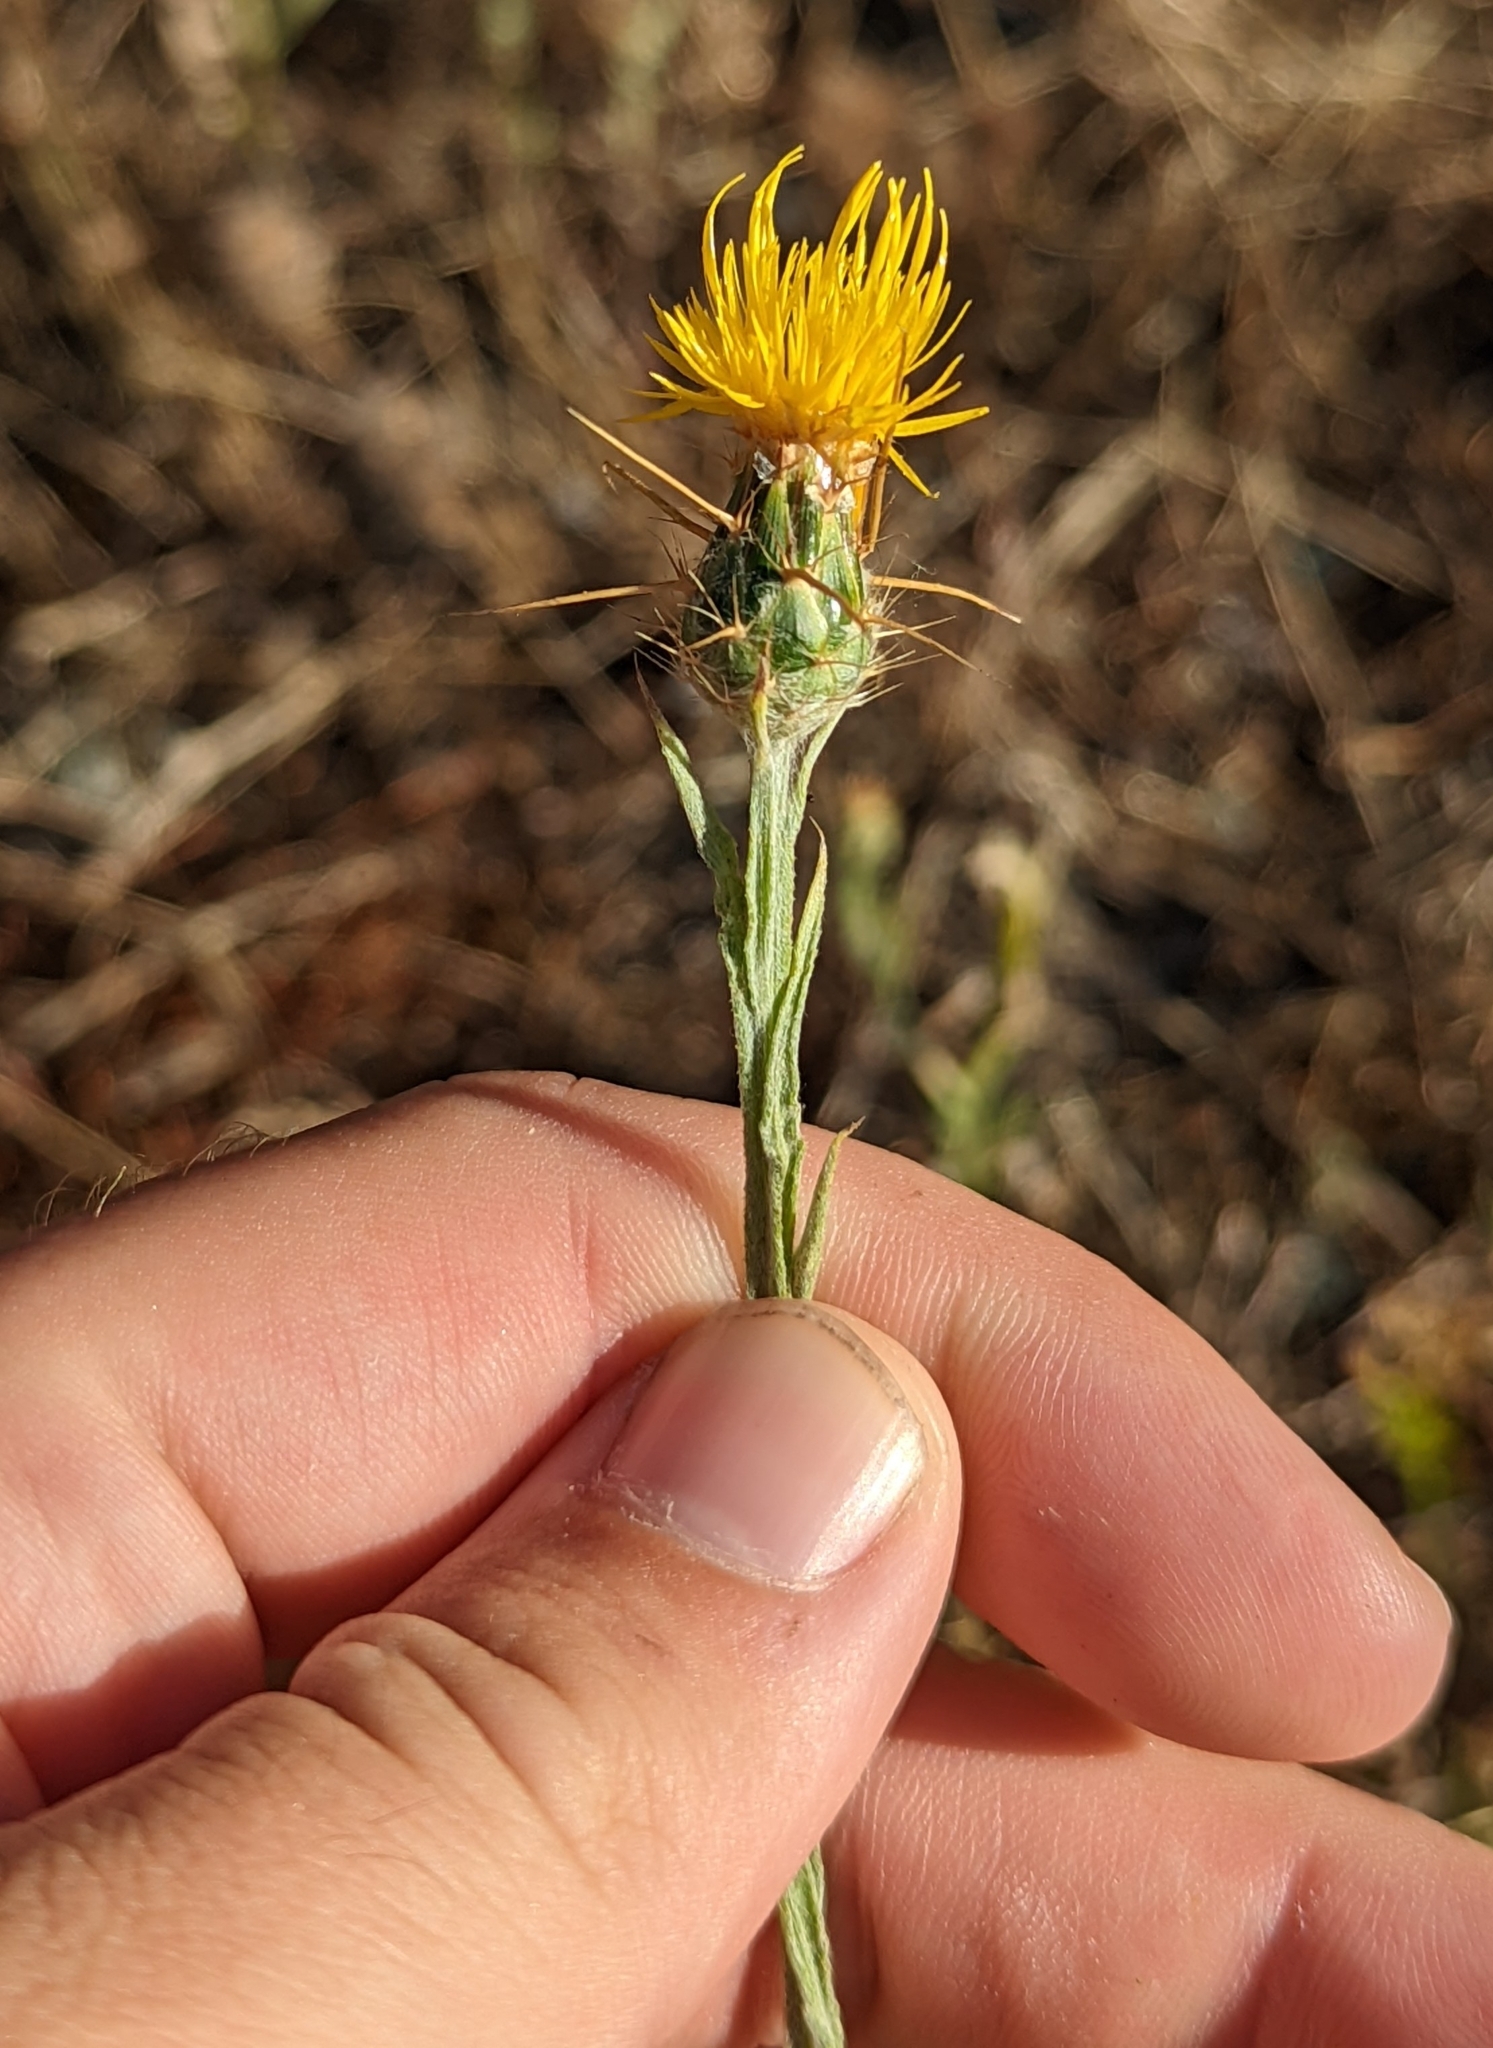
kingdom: Plantae
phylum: Tracheophyta
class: Magnoliopsida
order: Asterales
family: Asteraceae
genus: Centaurea
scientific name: Centaurea solstitialis
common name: Yellow star-thistle
